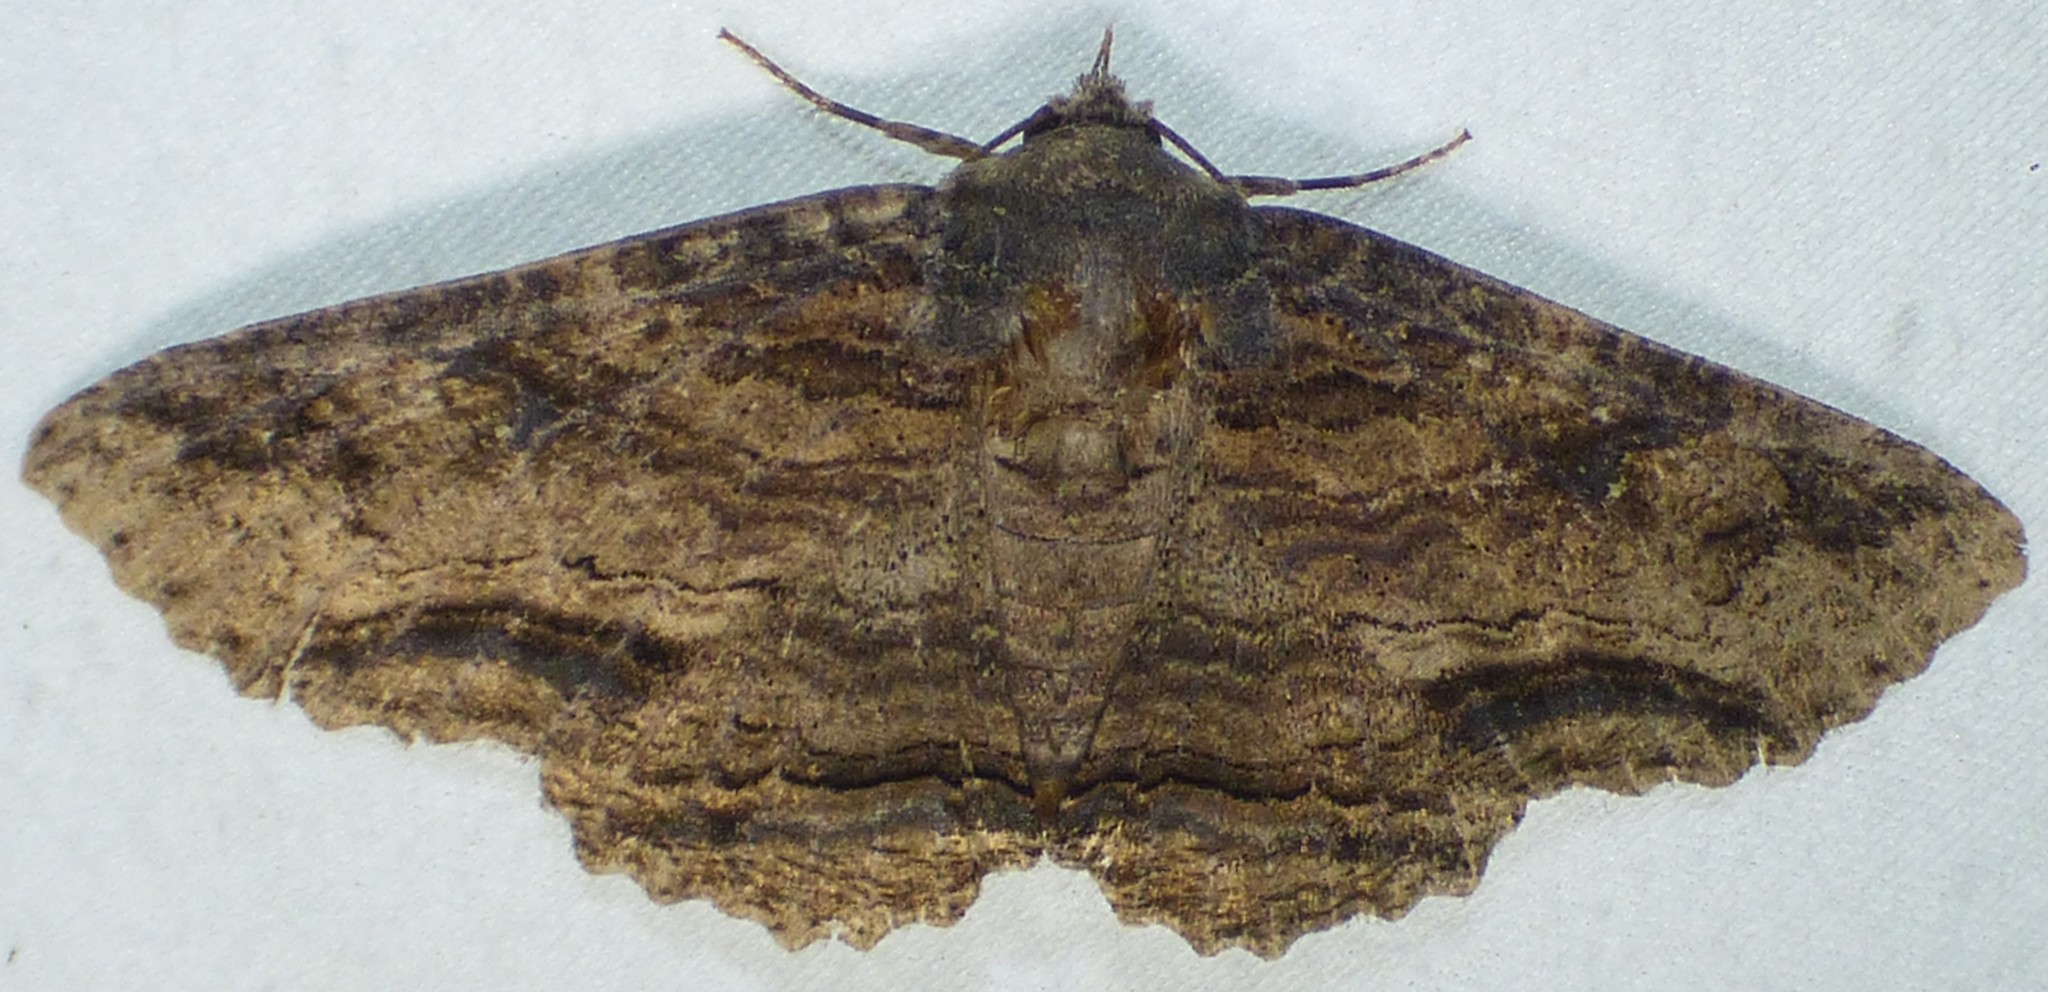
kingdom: Animalia
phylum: Arthropoda
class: Insecta
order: Lepidoptera
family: Erebidae
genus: Zale
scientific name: Zale lunata
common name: Lunate zale moth
